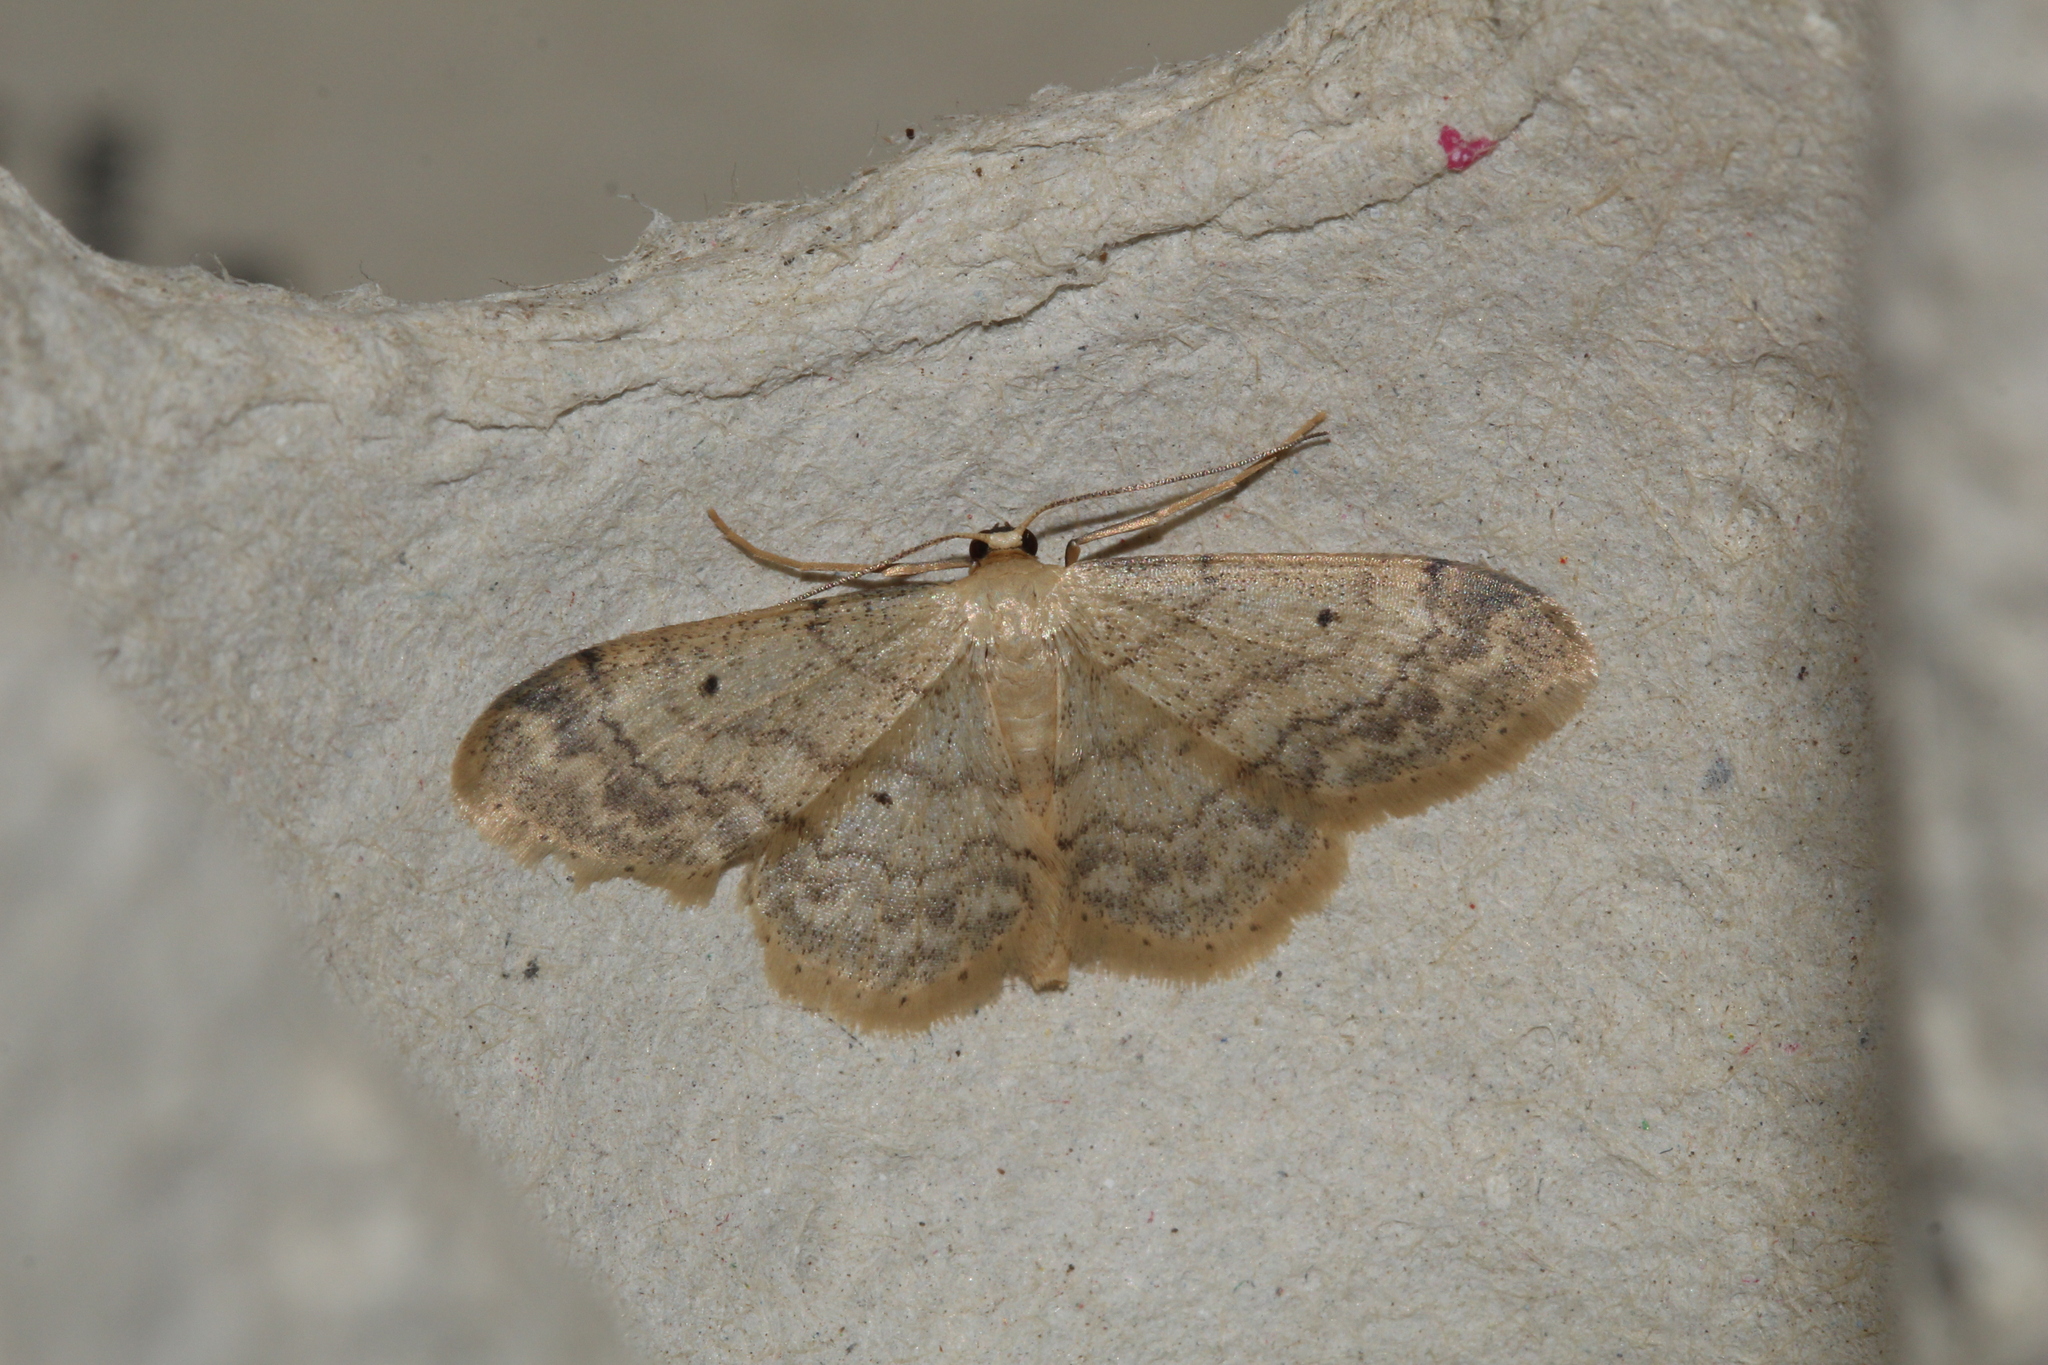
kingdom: Animalia
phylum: Arthropoda
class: Insecta
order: Lepidoptera
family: Geometridae
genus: Idaea
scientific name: Idaea biselata
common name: Small fan-footed wave
